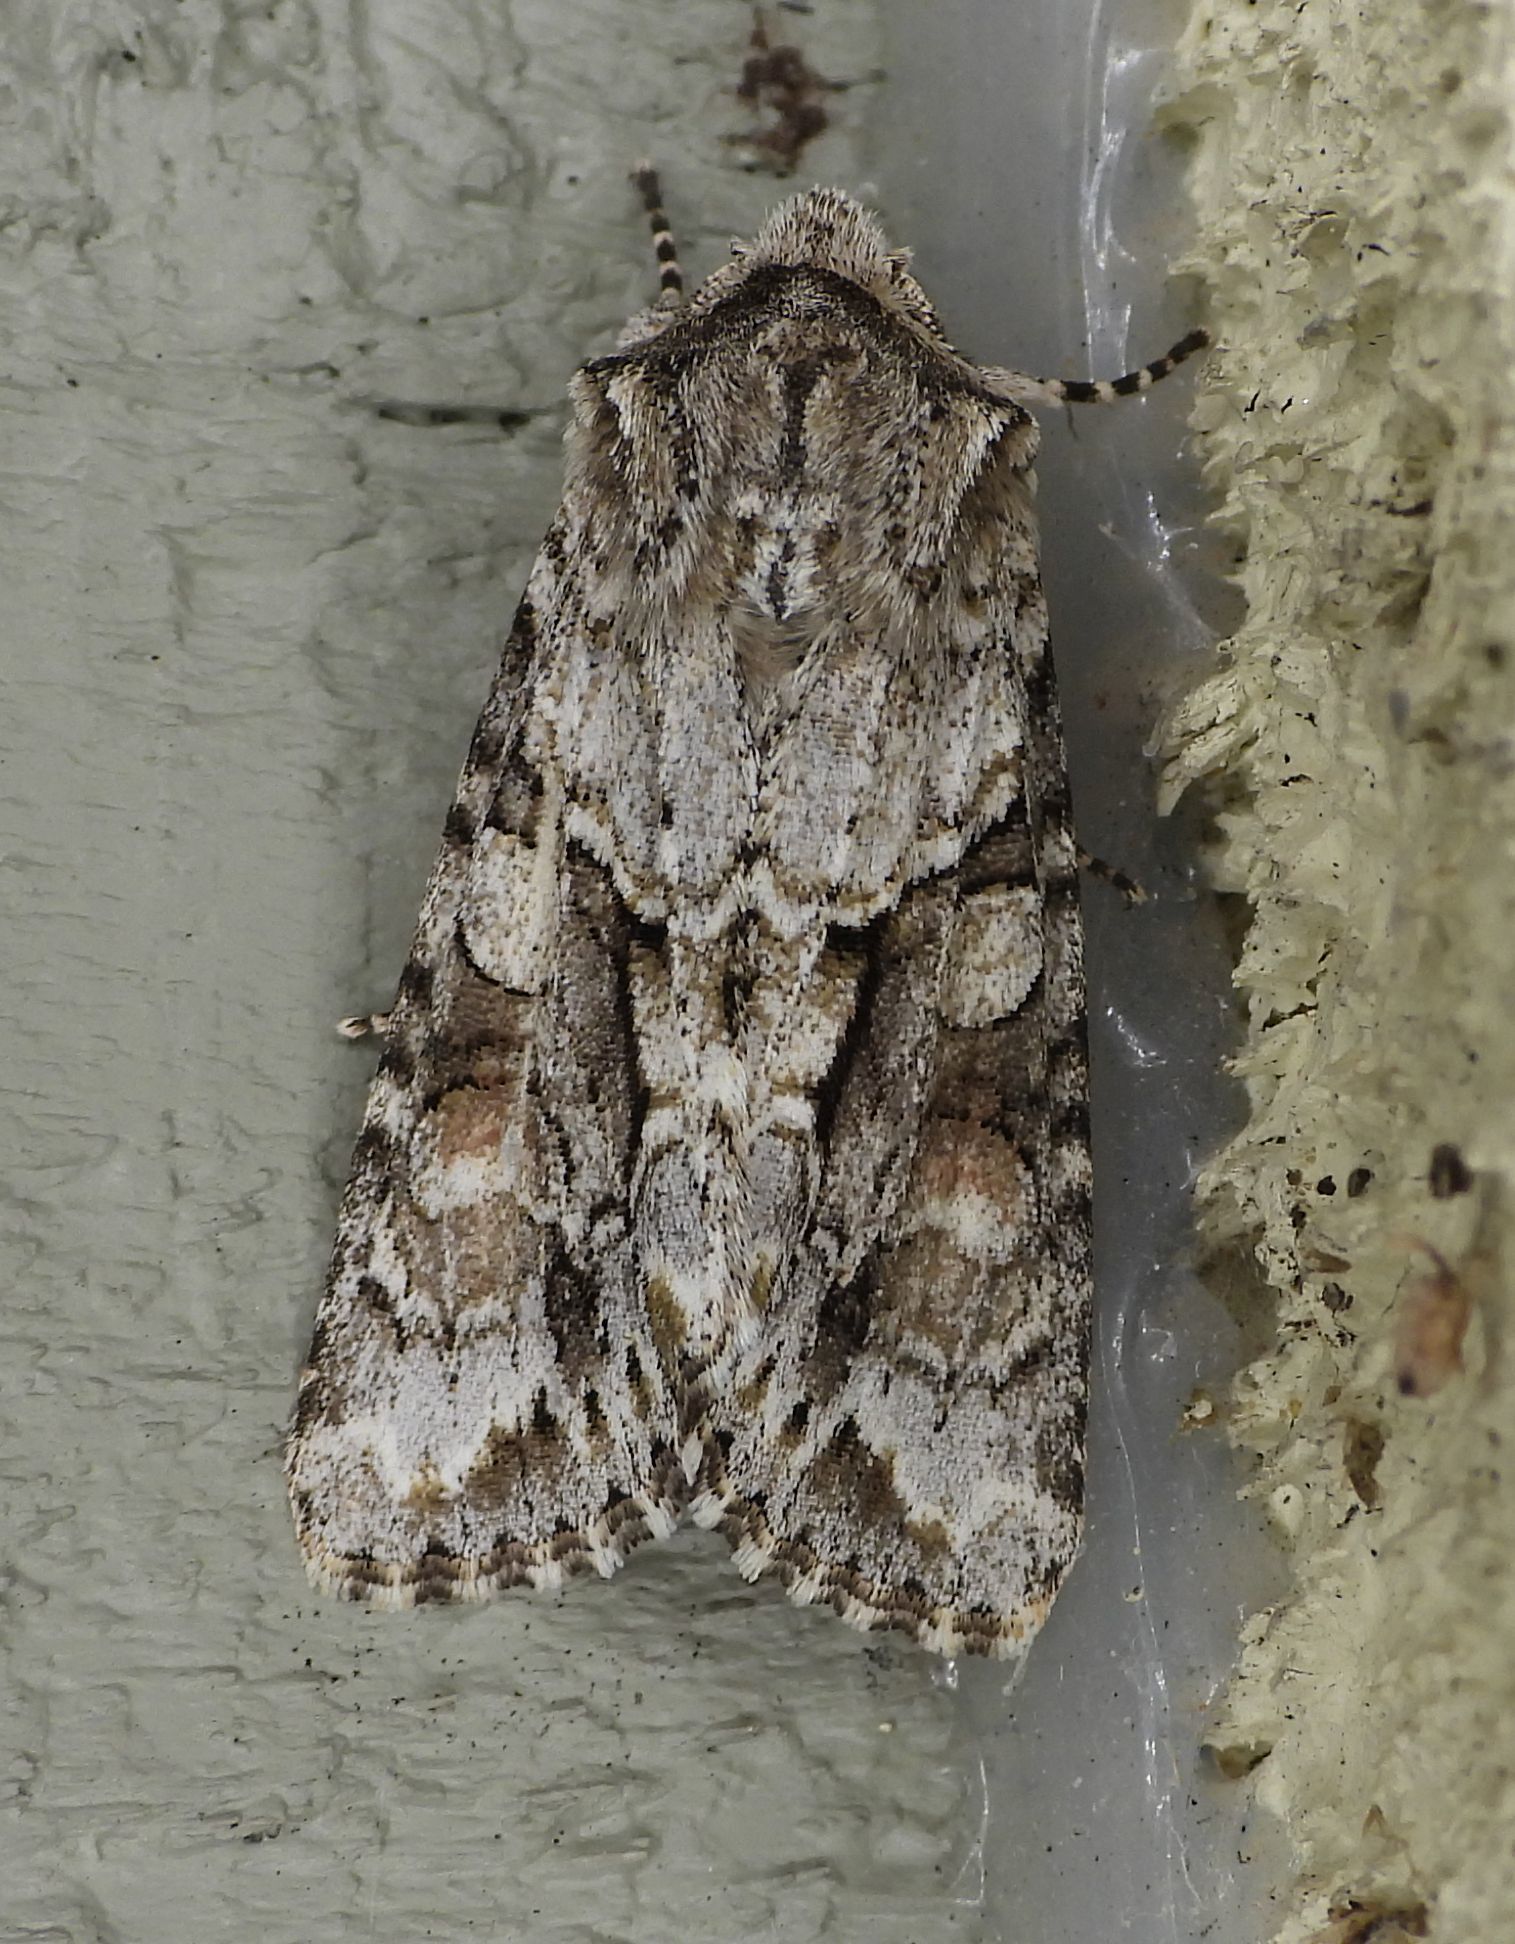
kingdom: Animalia
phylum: Arthropoda
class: Insecta
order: Lepidoptera
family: Noctuidae
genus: Achatia
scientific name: Achatia distincta
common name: Distinct quaker
